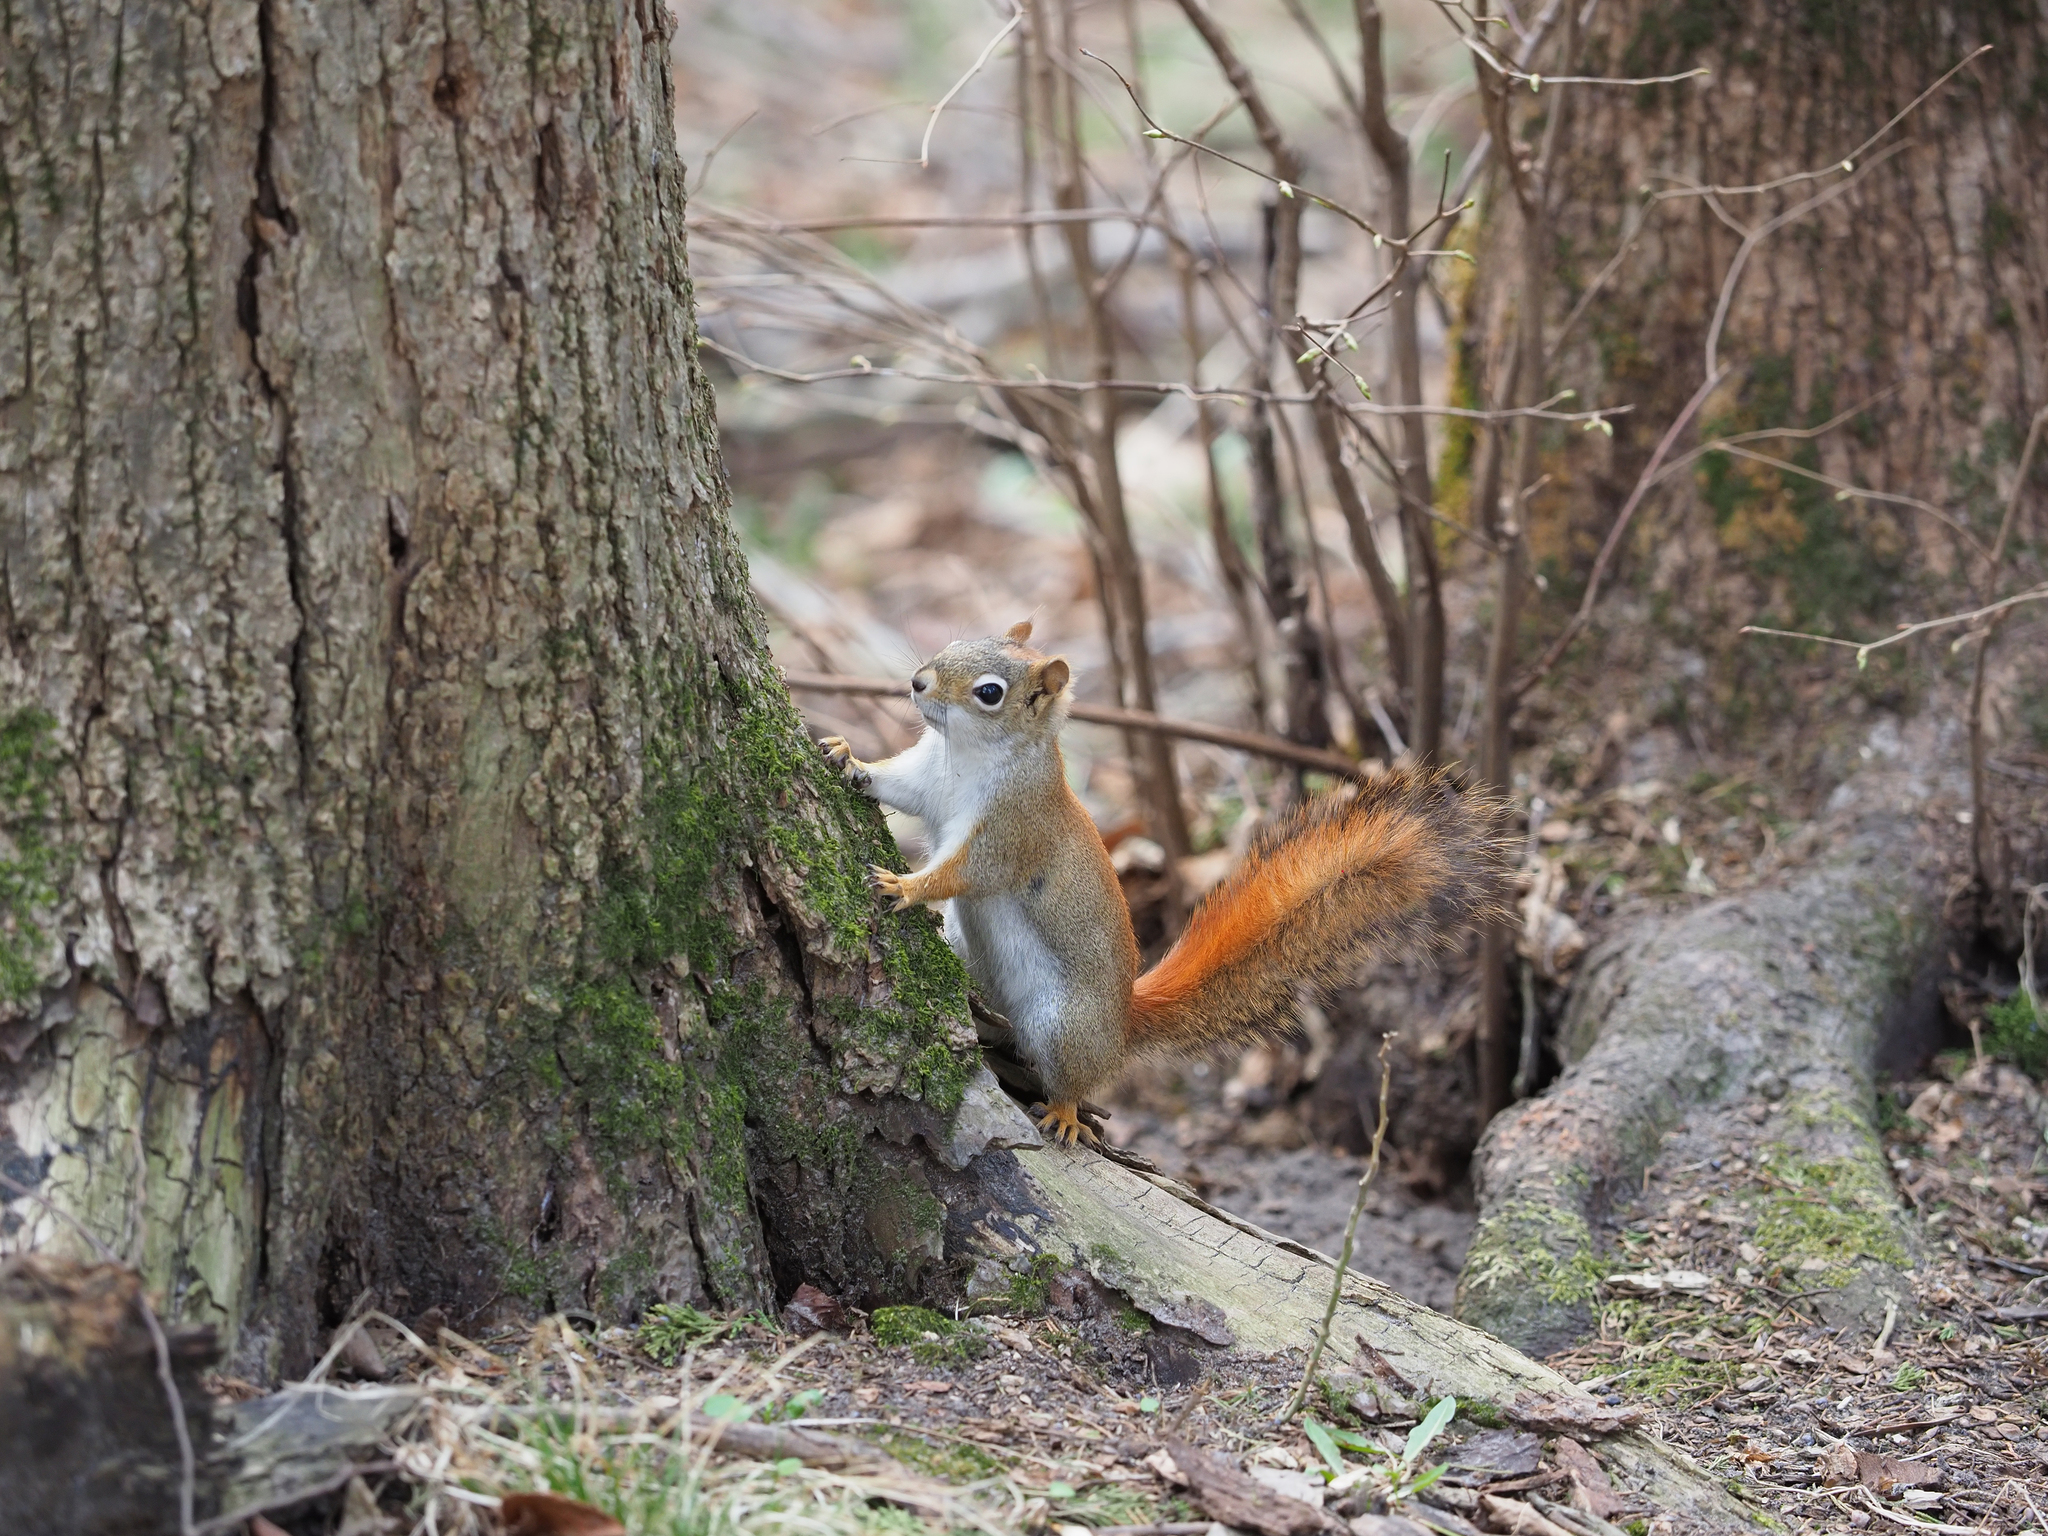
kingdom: Animalia
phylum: Chordata
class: Mammalia
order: Rodentia
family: Sciuridae
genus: Tamiasciurus
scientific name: Tamiasciurus hudsonicus
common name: Red squirrel
